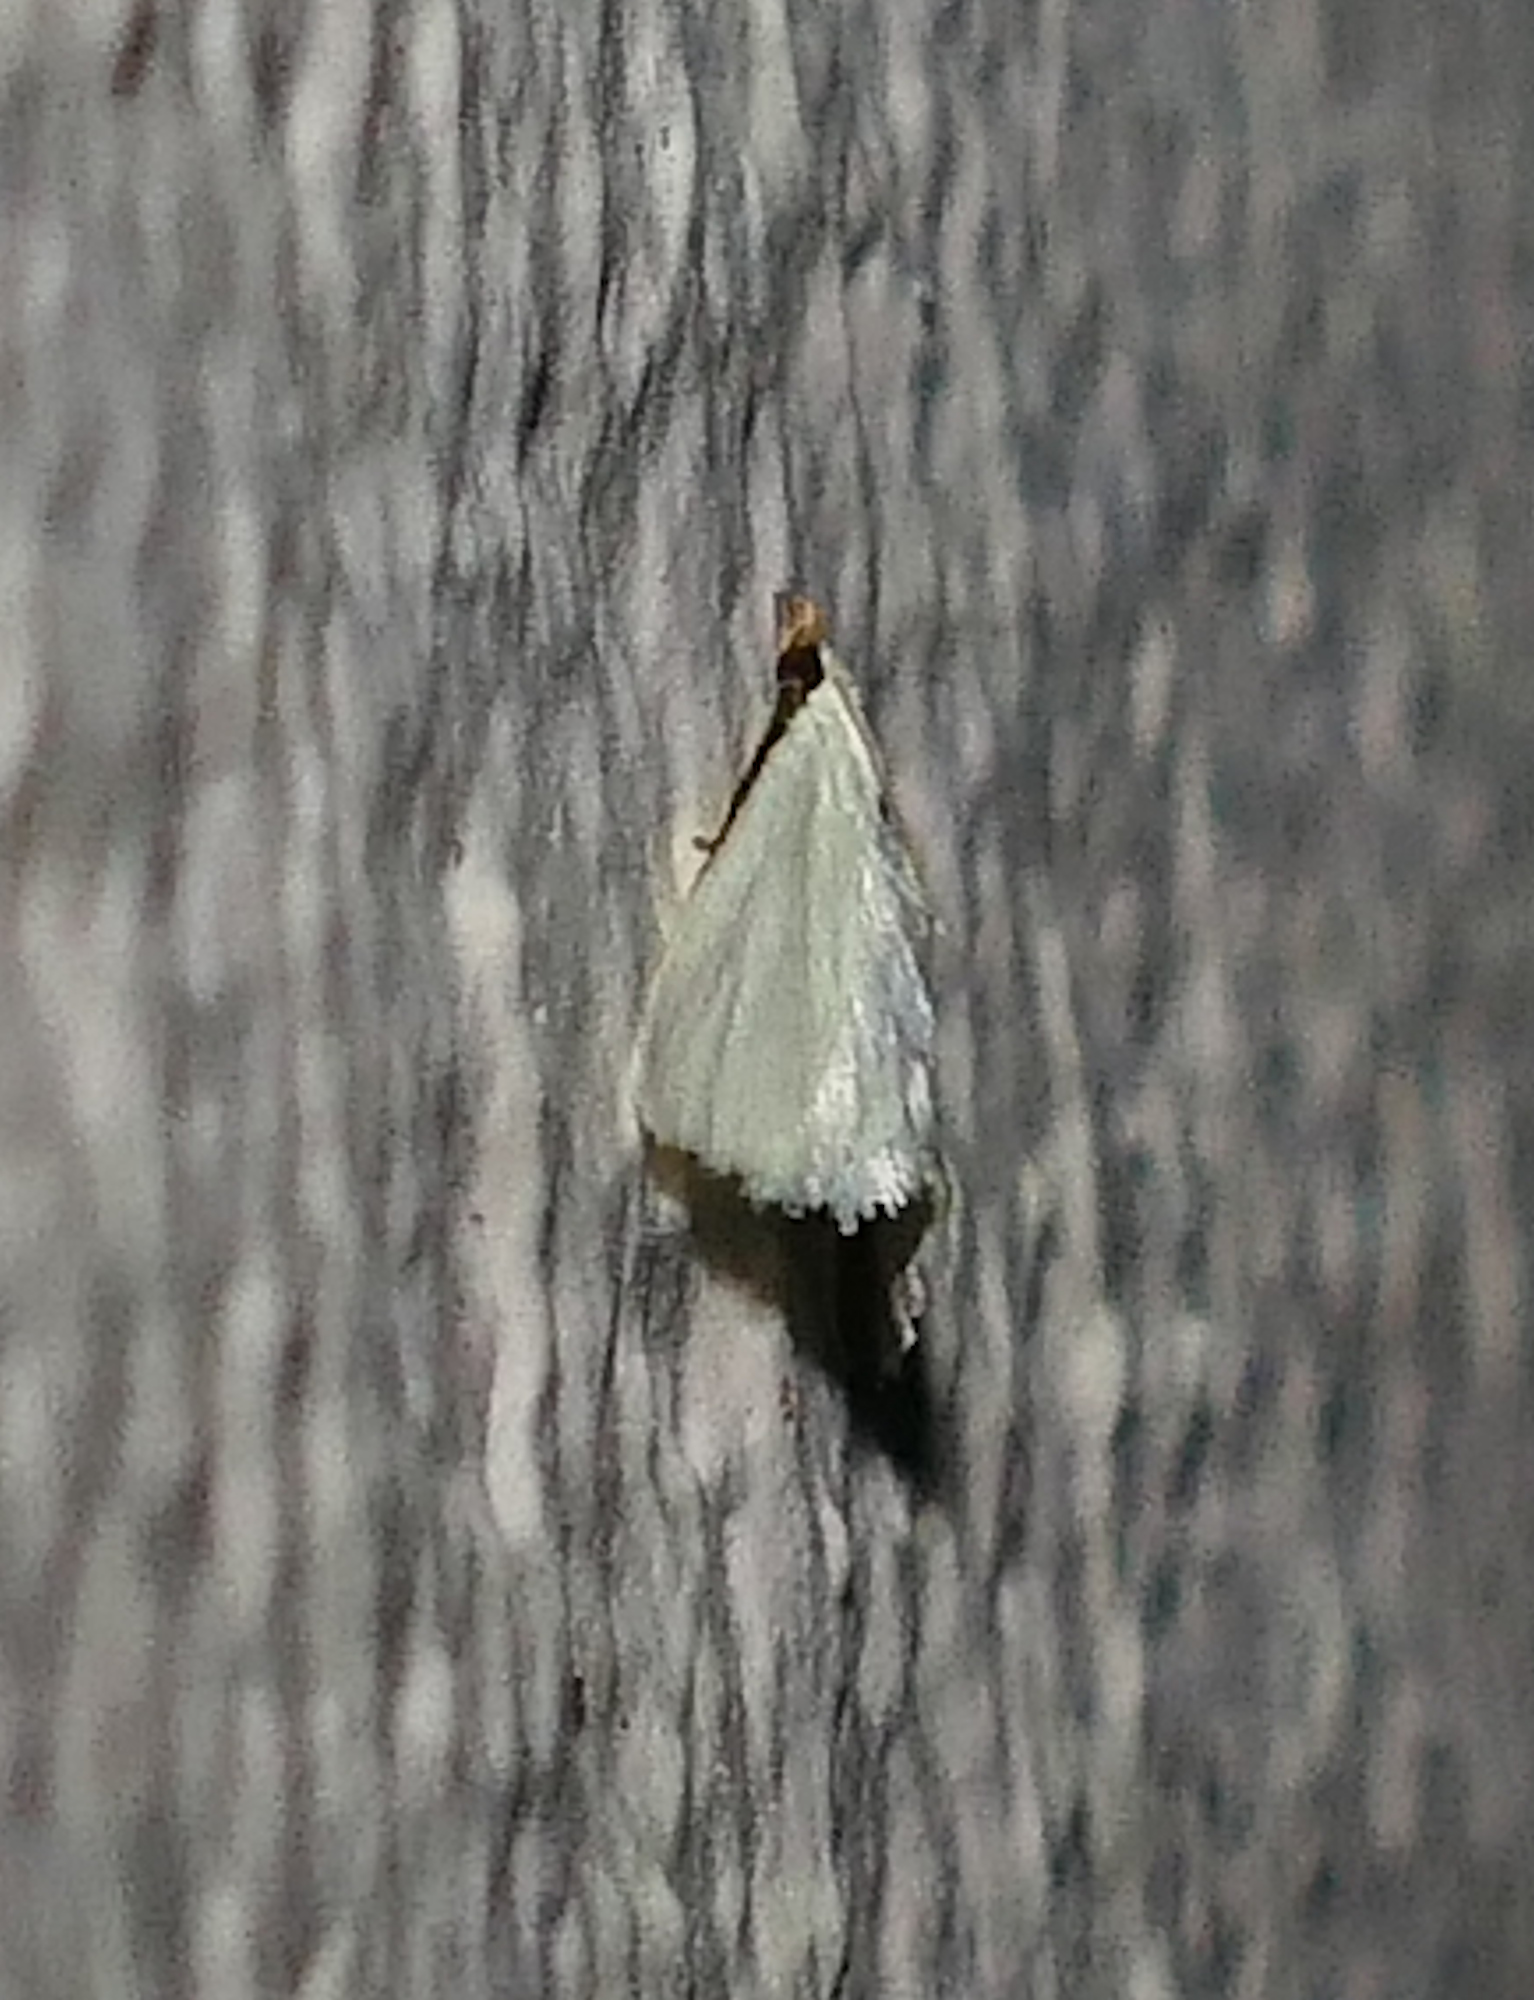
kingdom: Animalia
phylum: Arthropoda
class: Insecta
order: Lepidoptera
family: Crambidae
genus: Leptosteges
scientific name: Leptosteges vestaliella
